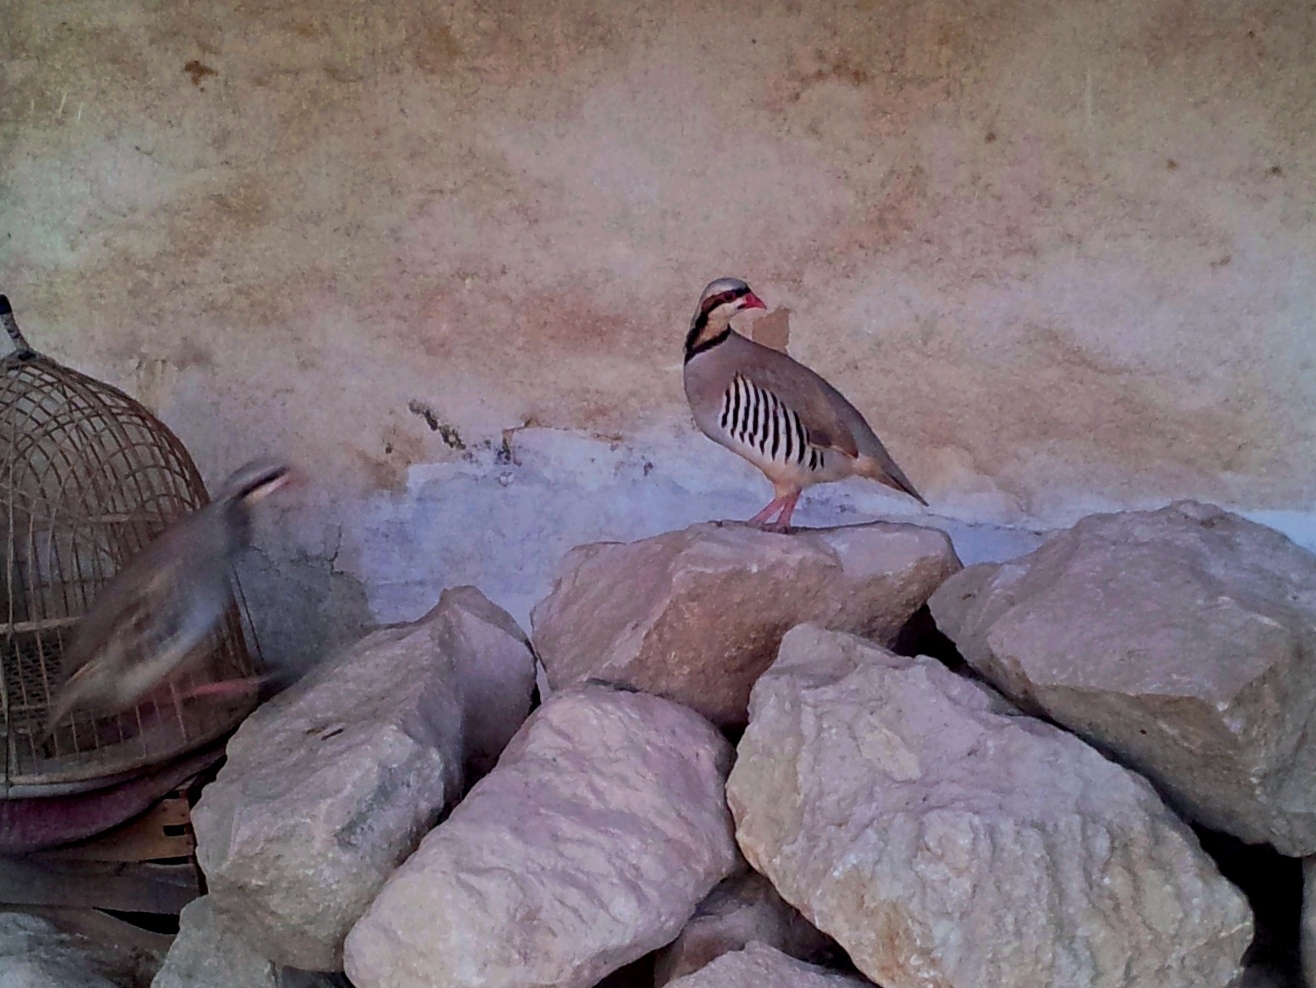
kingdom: Animalia
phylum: Chordata
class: Aves
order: Galliformes
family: Phasianidae
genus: Alectoris
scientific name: Alectoris chukar
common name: Chukar
